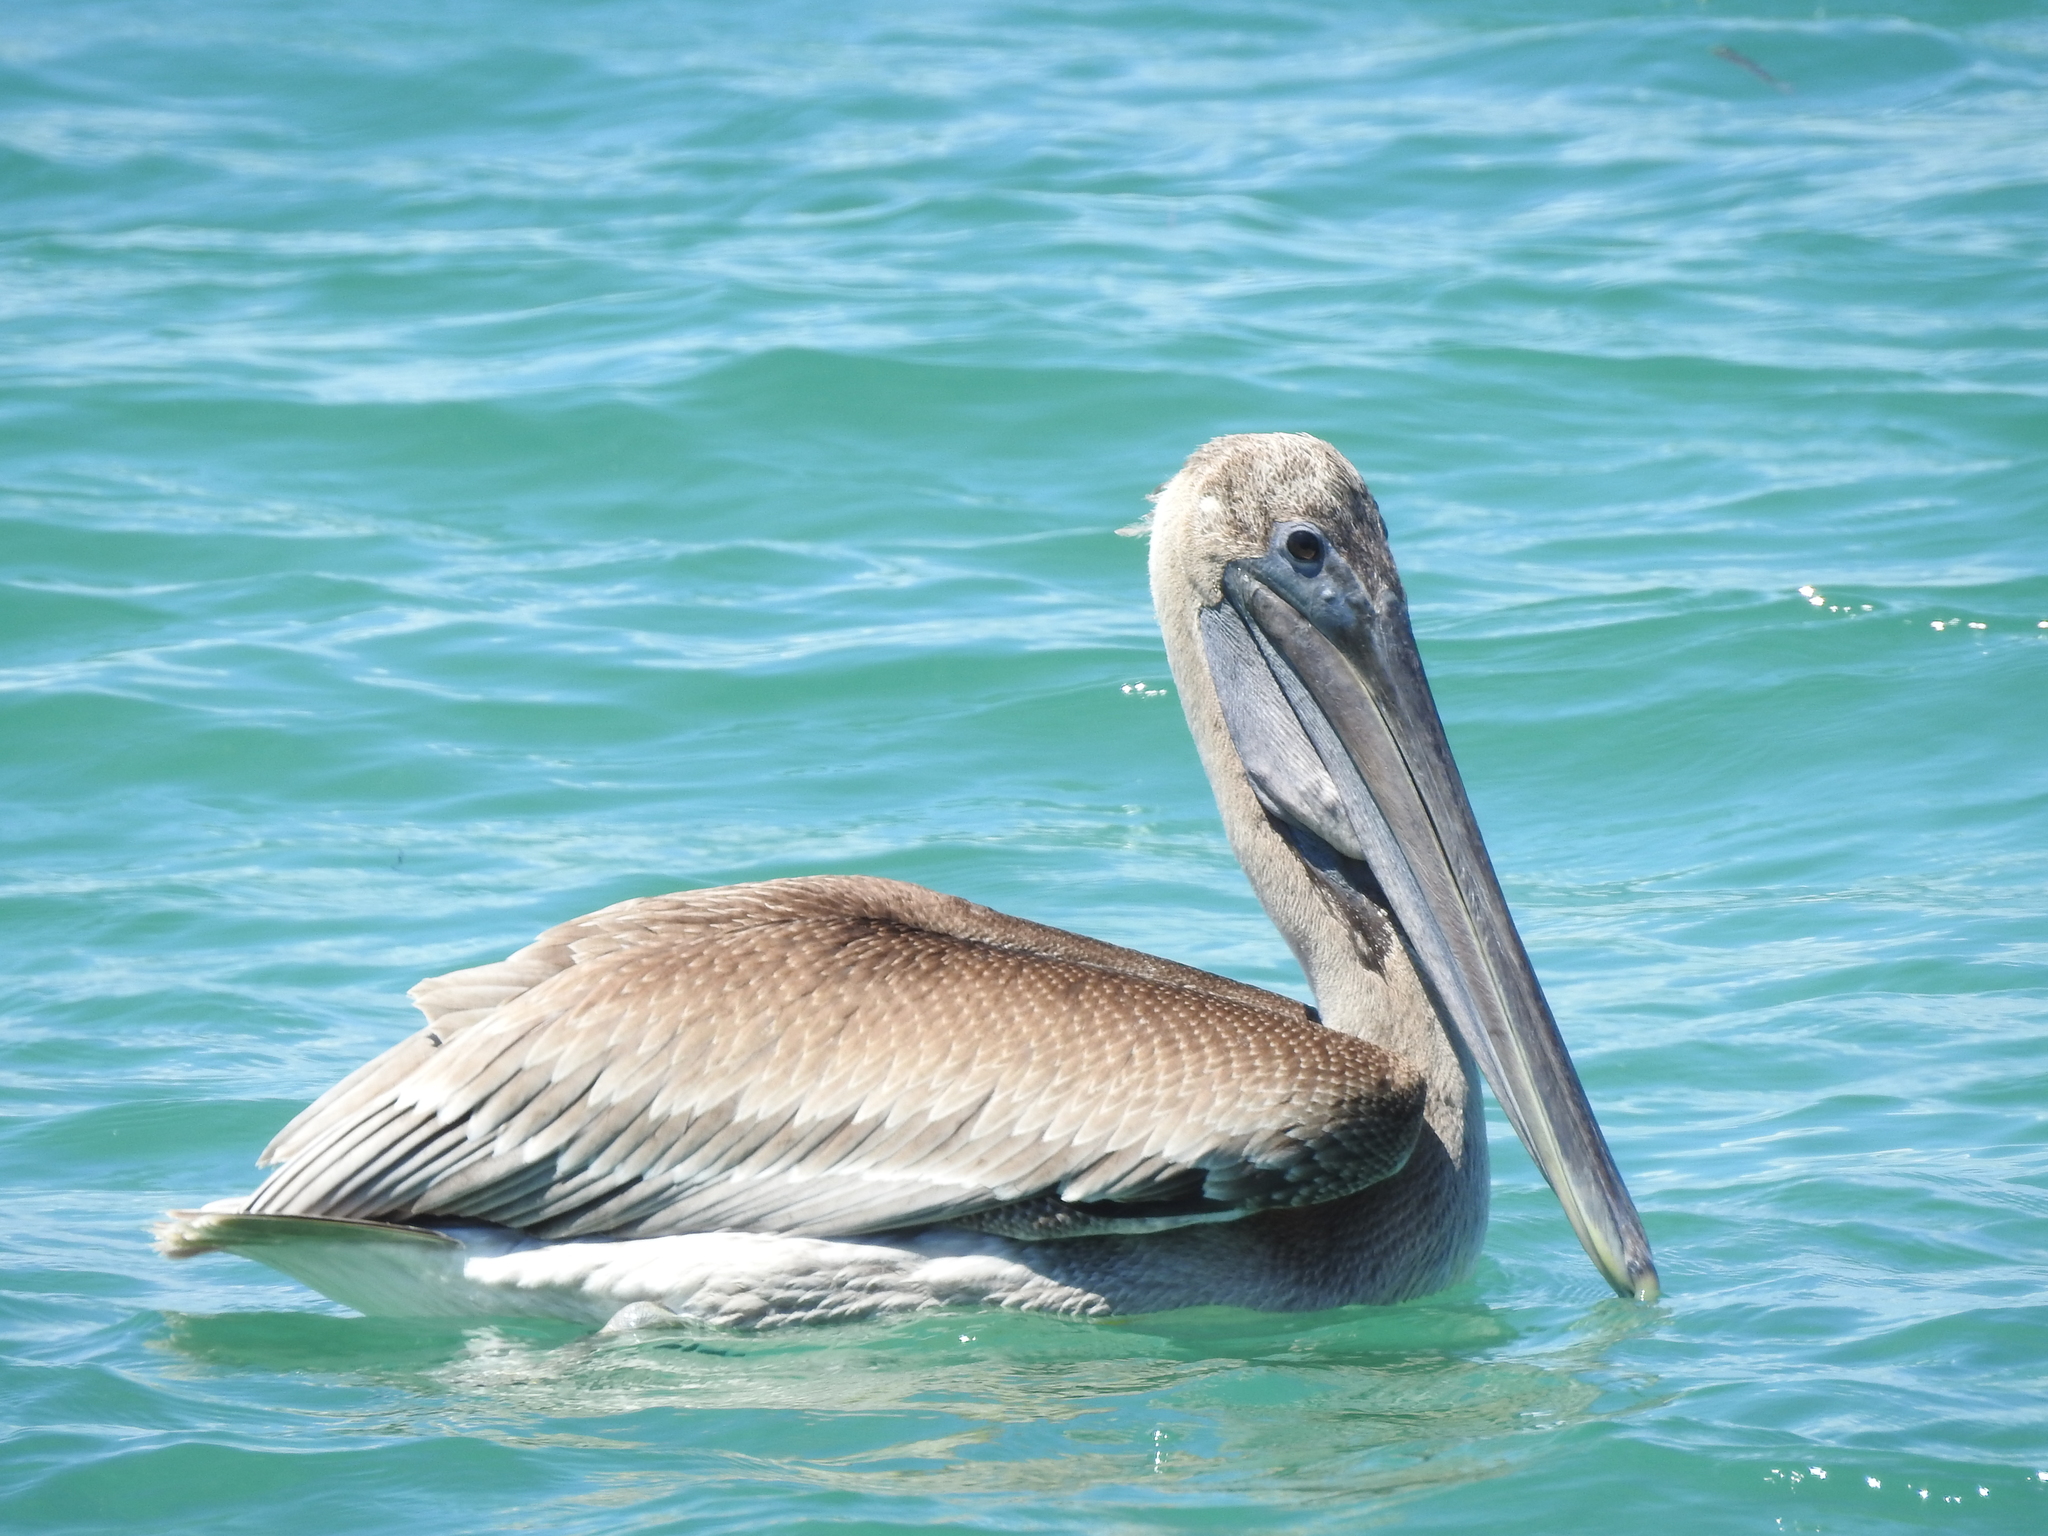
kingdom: Animalia
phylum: Chordata
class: Aves
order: Pelecaniformes
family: Pelecanidae
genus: Pelecanus
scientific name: Pelecanus occidentalis
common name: Brown pelican
